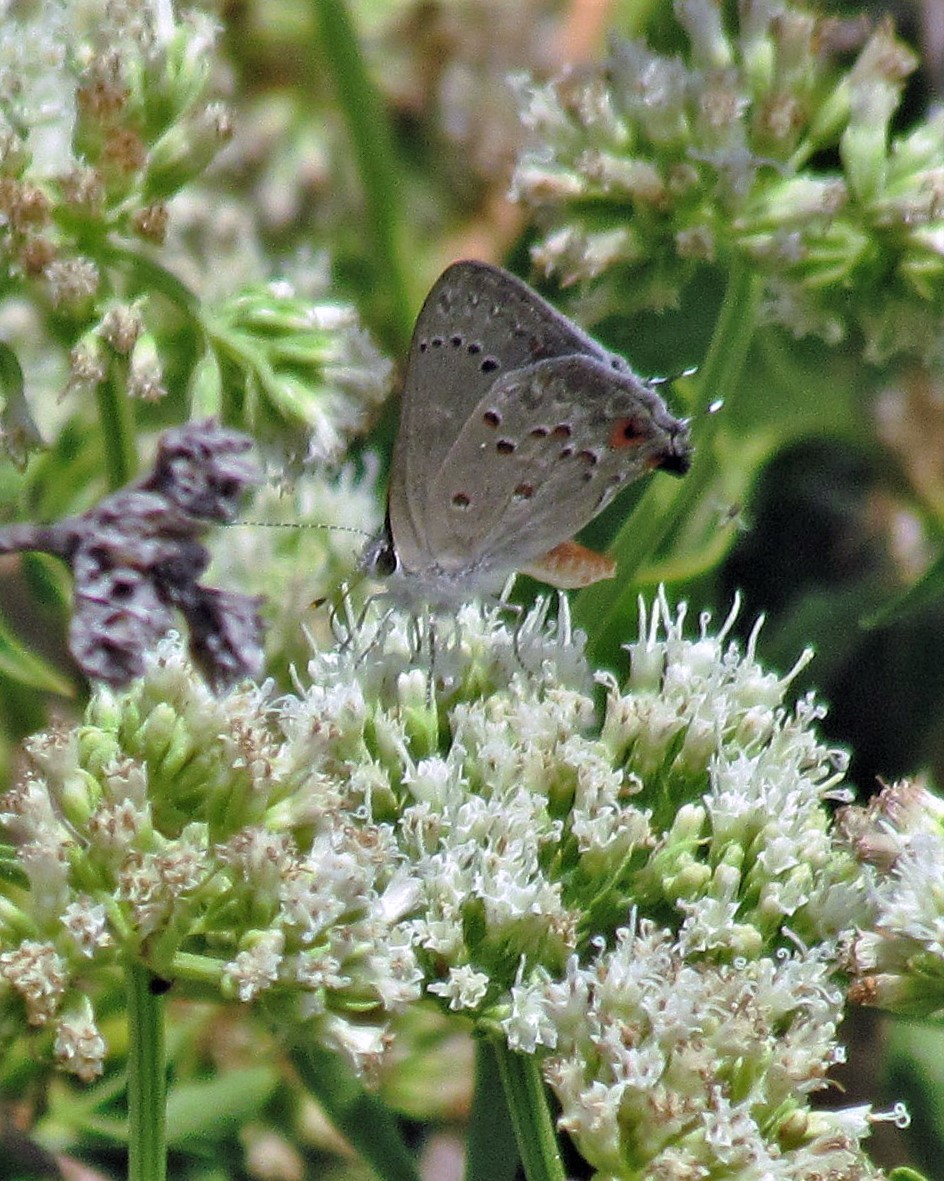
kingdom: Animalia
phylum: Arthropoda
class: Insecta
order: Lepidoptera
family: Lycaenidae
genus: Strymon
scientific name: Strymon eurytulus
